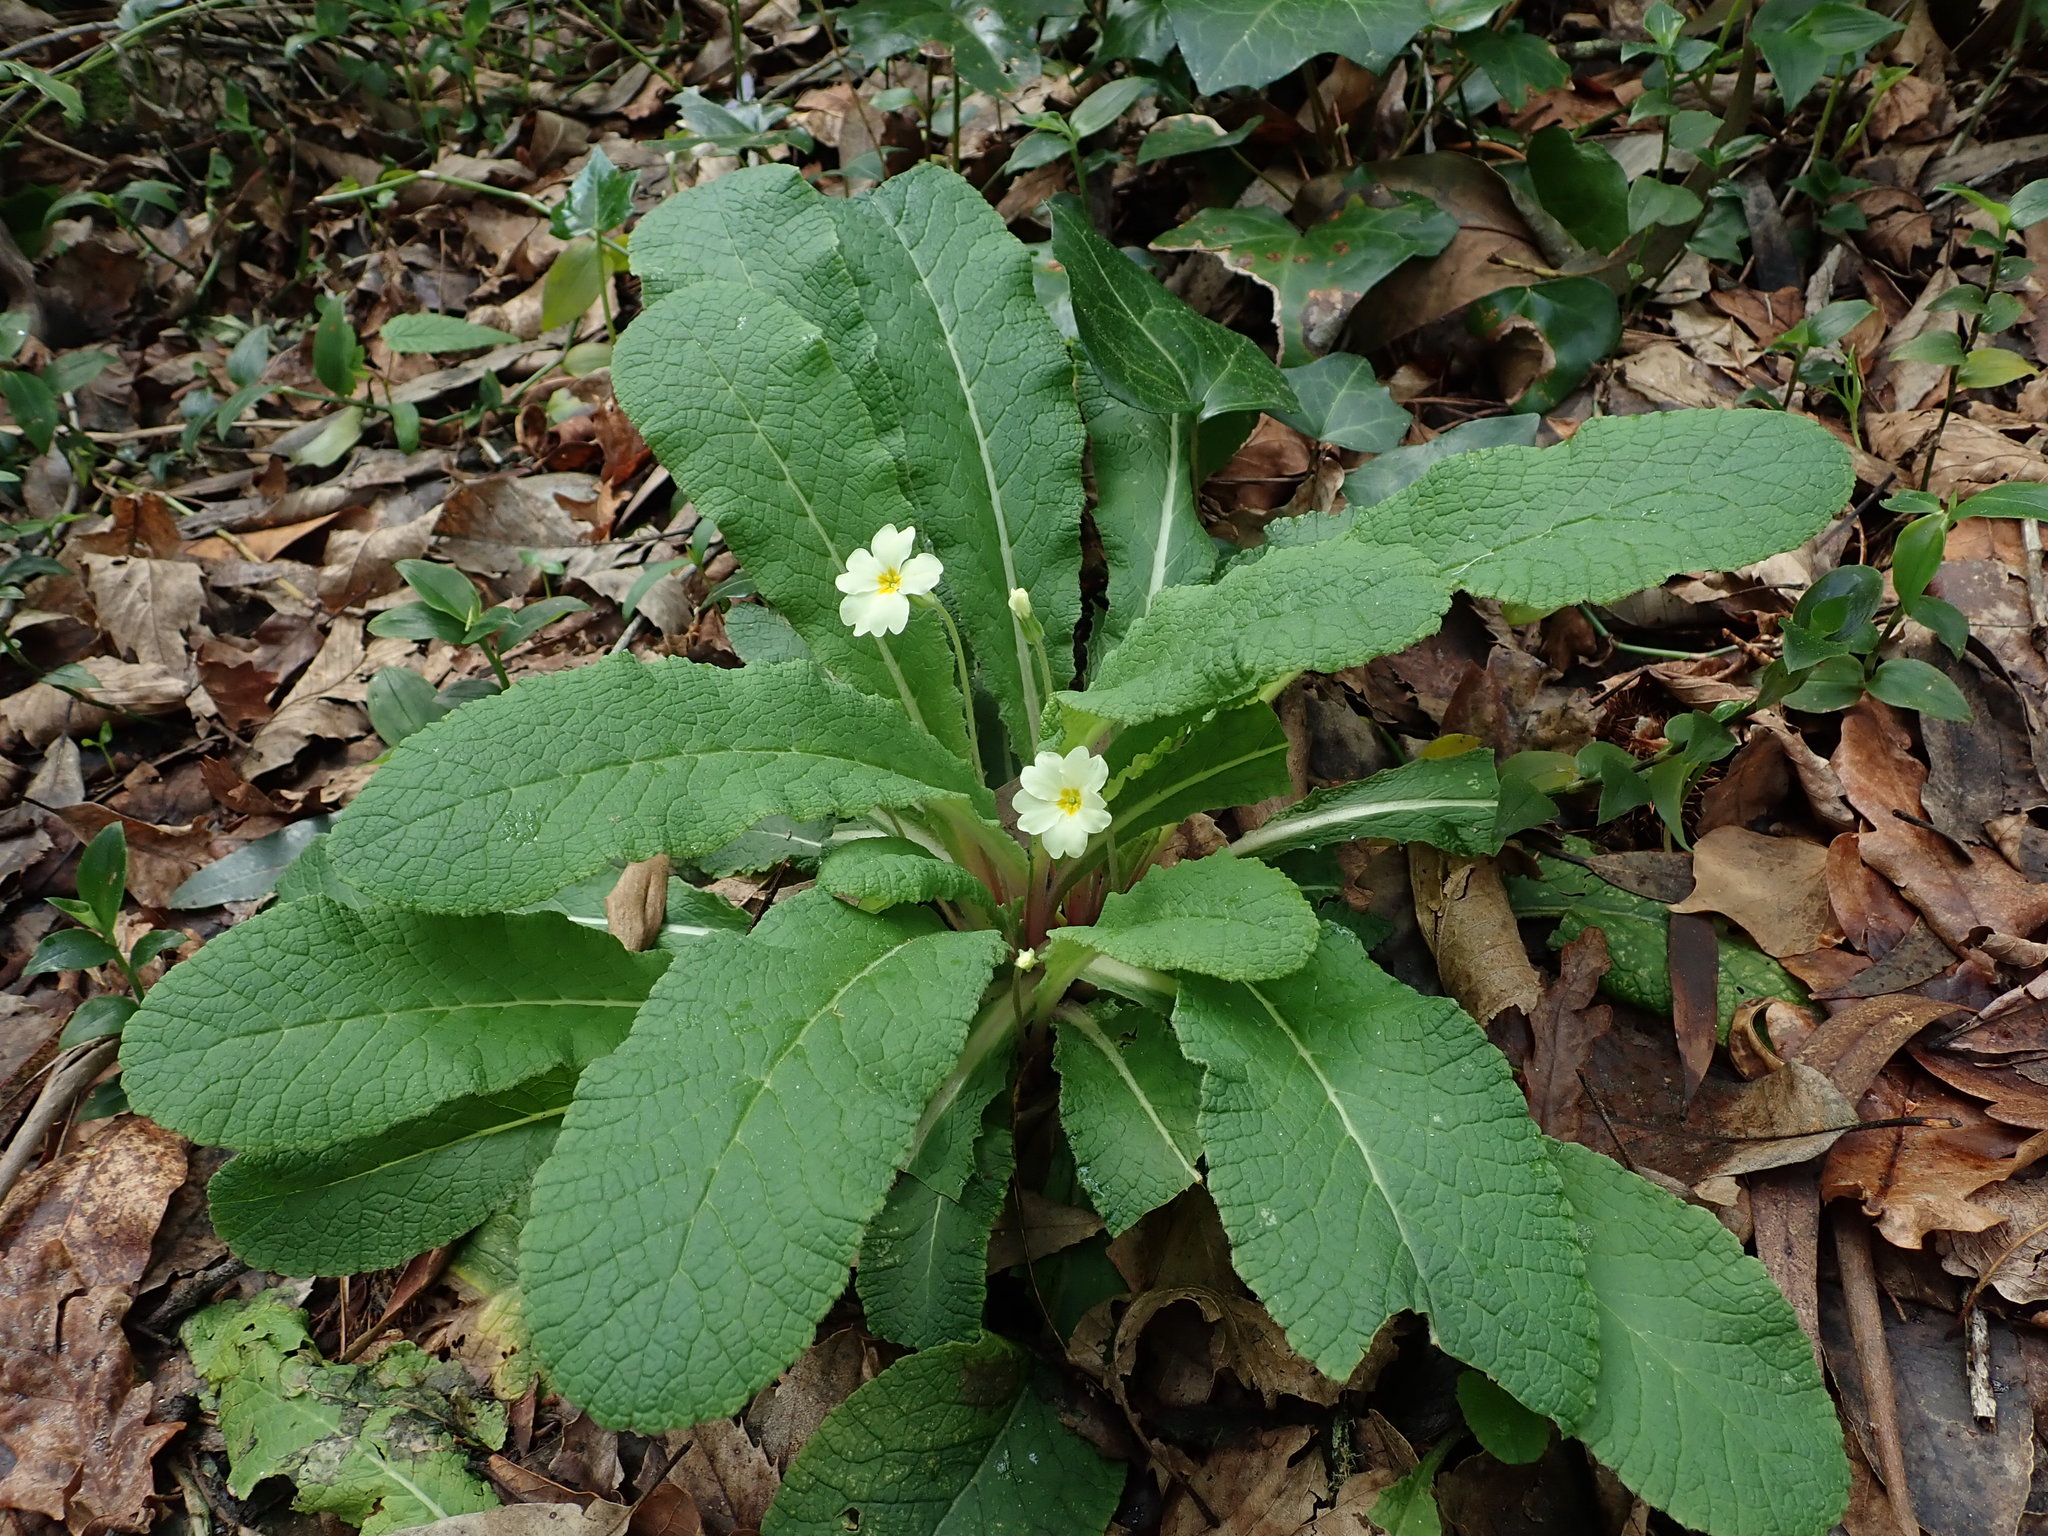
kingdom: Plantae
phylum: Tracheophyta
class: Magnoliopsida
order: Ericales
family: Primulaceae
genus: Primula
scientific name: Primula vulgaris
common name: Primrose
